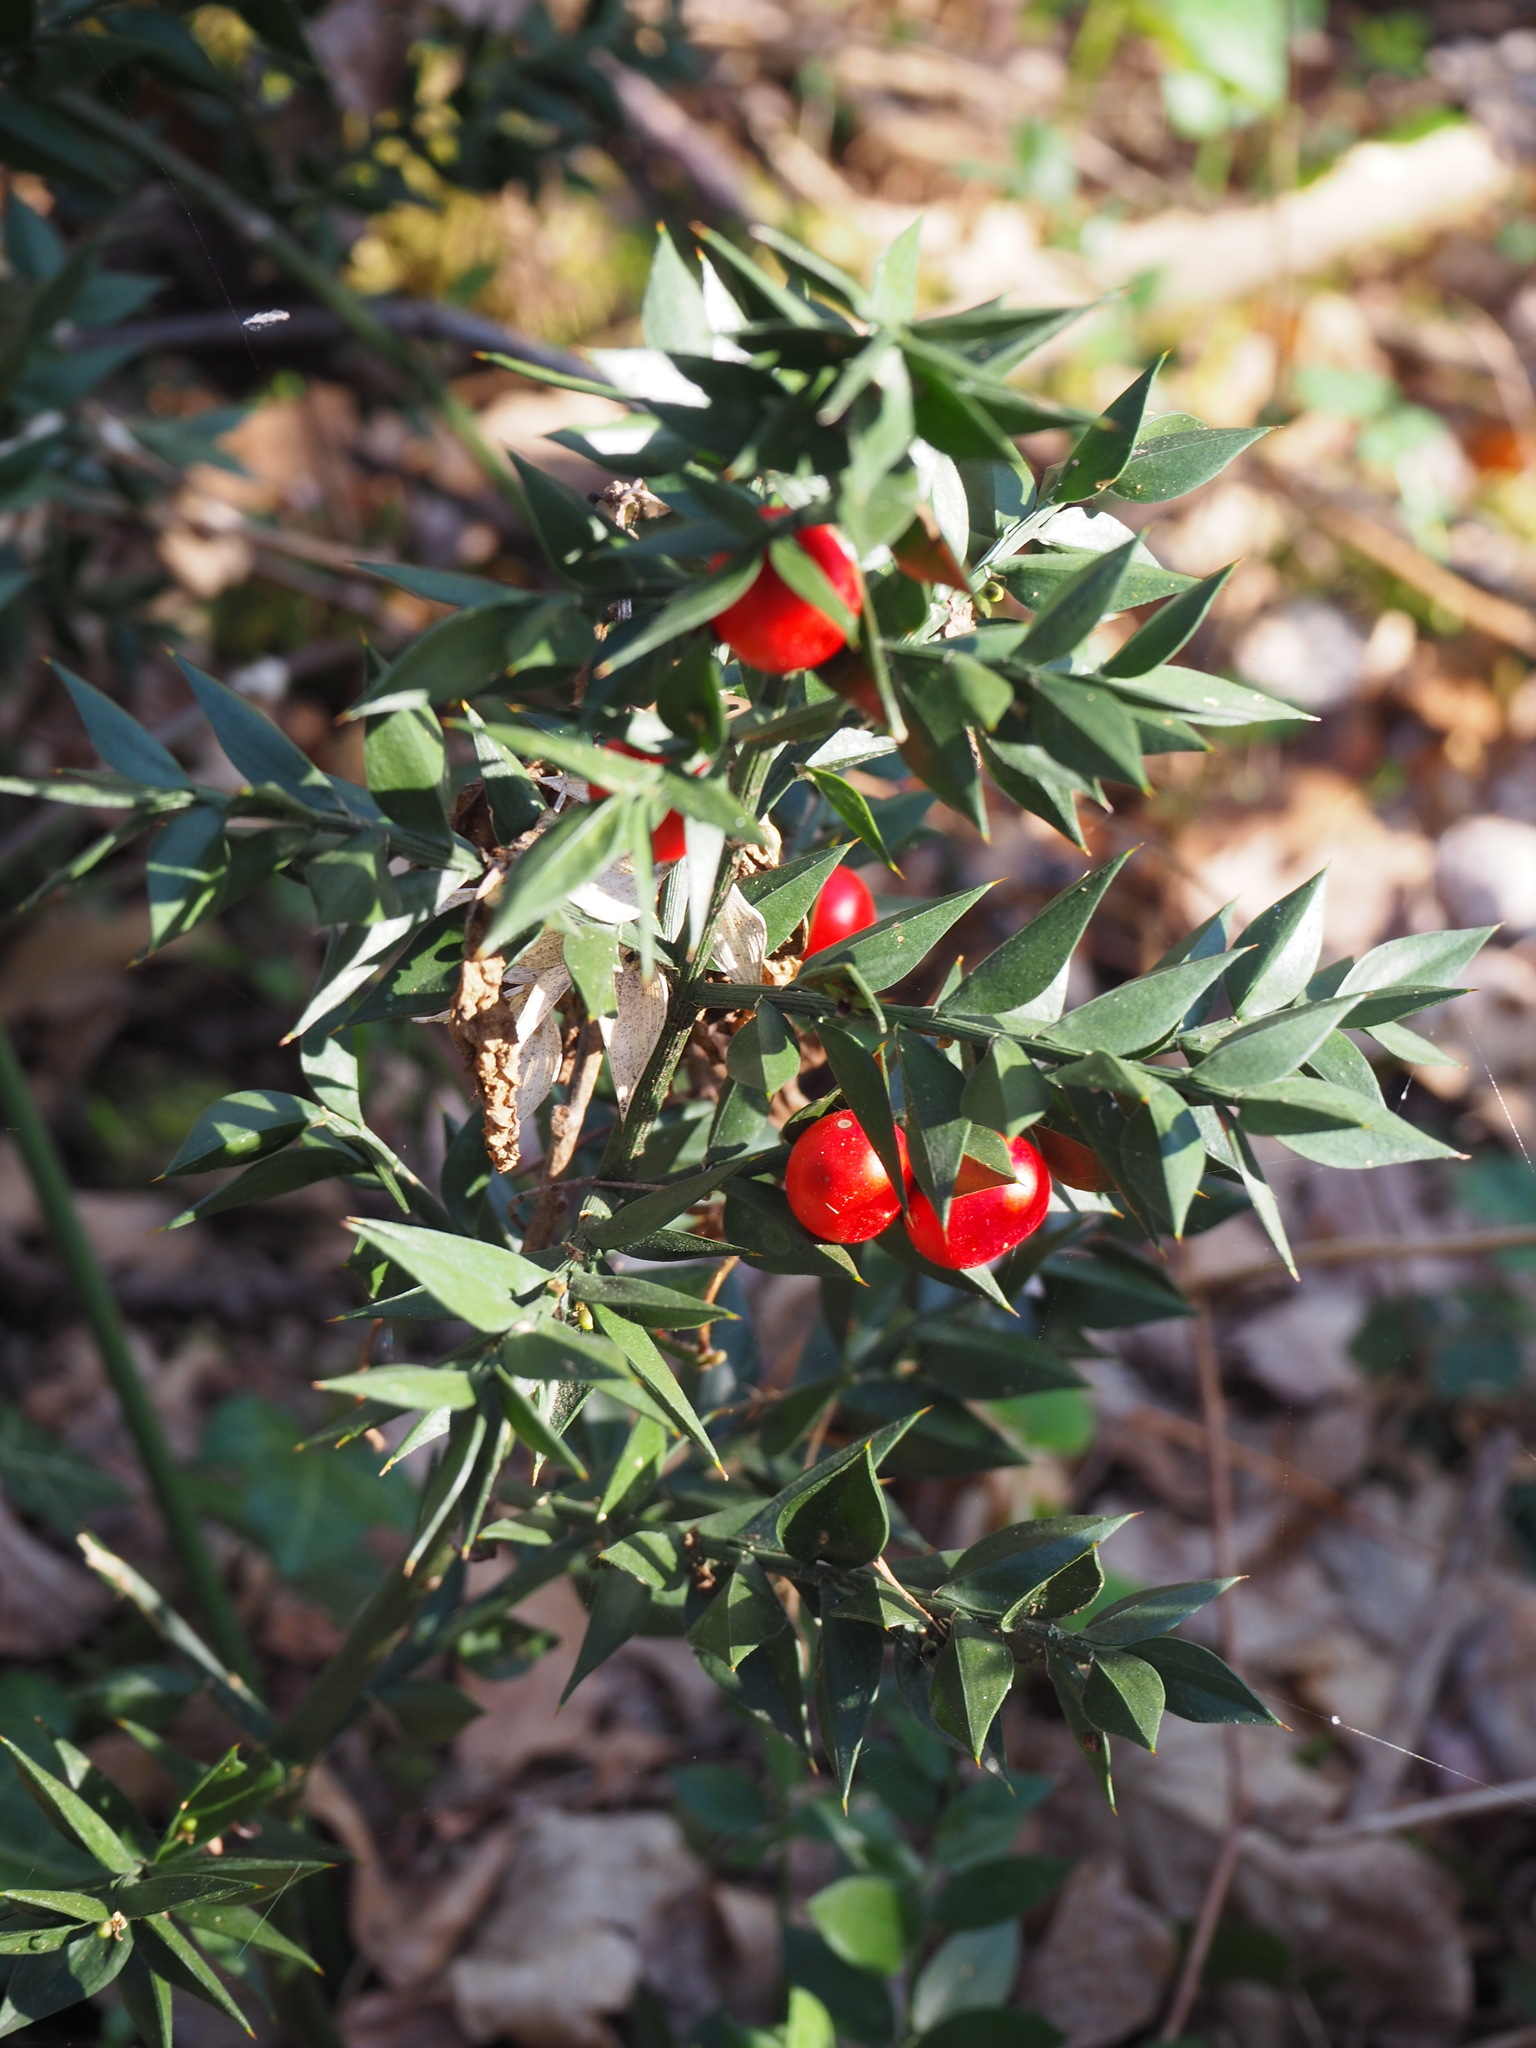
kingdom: Plantae
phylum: Tracheophyta
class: Liliopsida
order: Asparagales
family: Asparagaceae
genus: Ruscus
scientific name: Ruscus aculeatus
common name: Butcher's-broom
